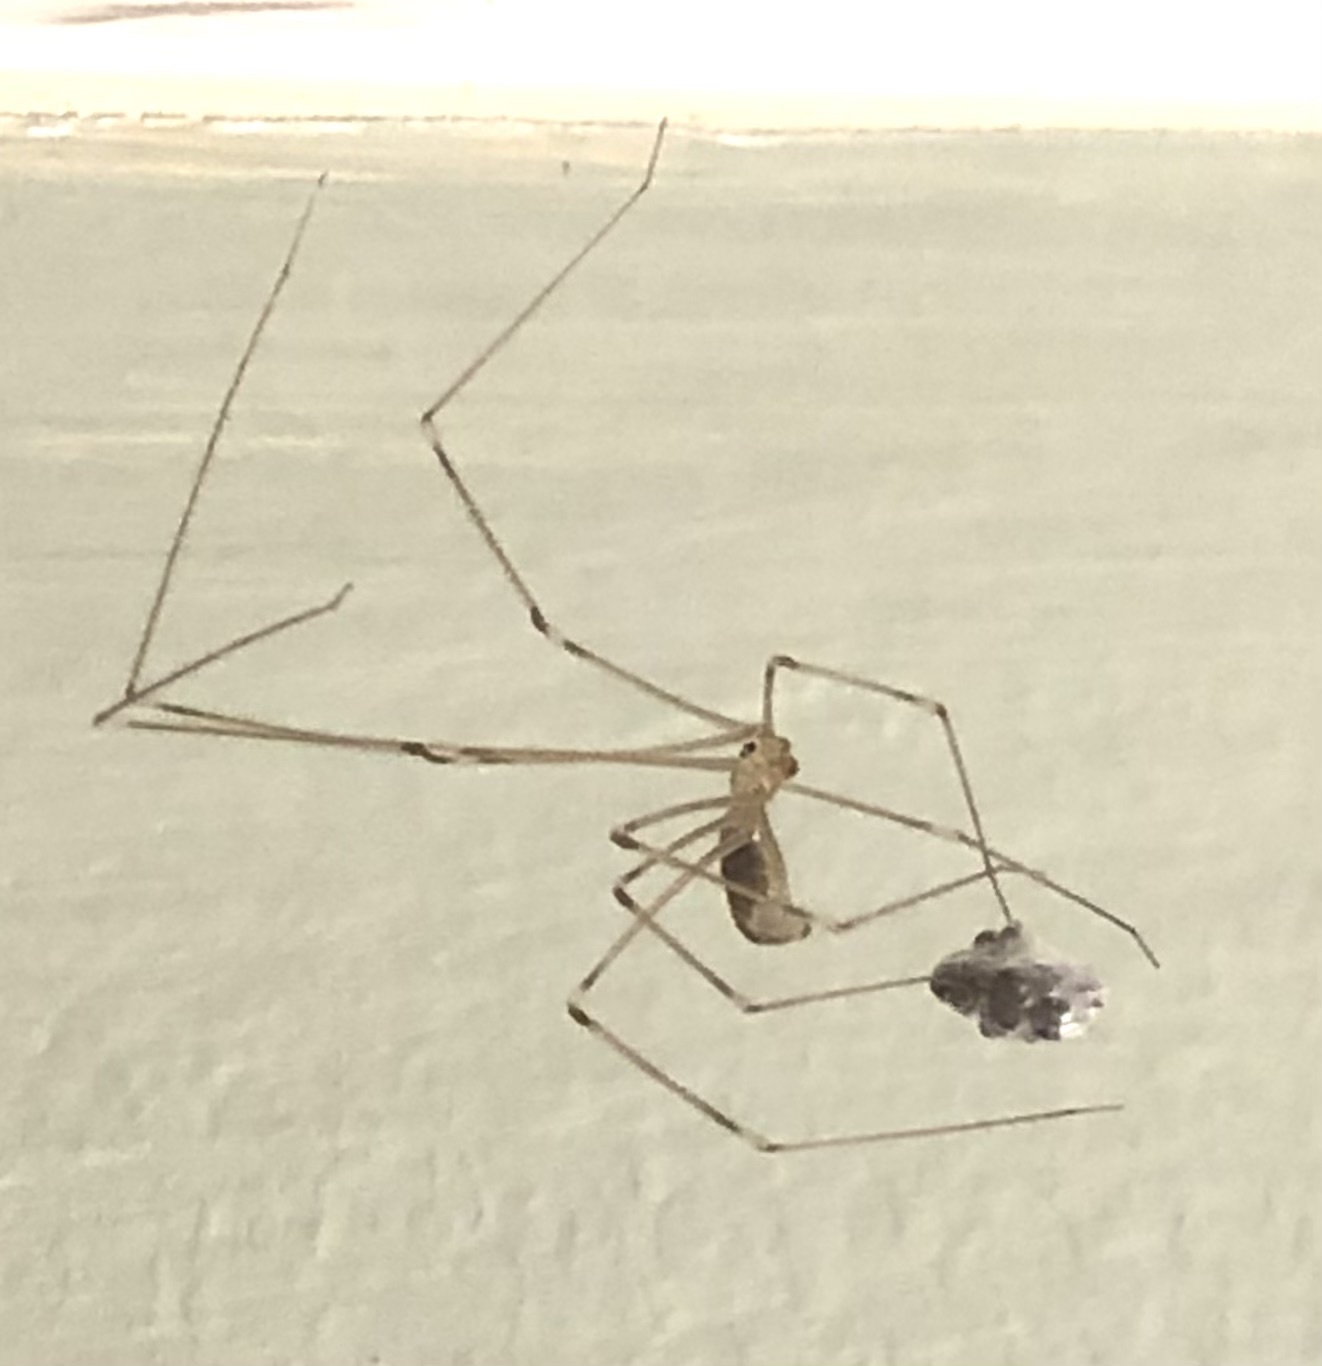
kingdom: Animalia
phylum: Arthropoda
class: Arachnida
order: Araneae
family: Pholcidae
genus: Pholcus
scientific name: Pholcus phalangioides
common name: Longbodied cellar spider
